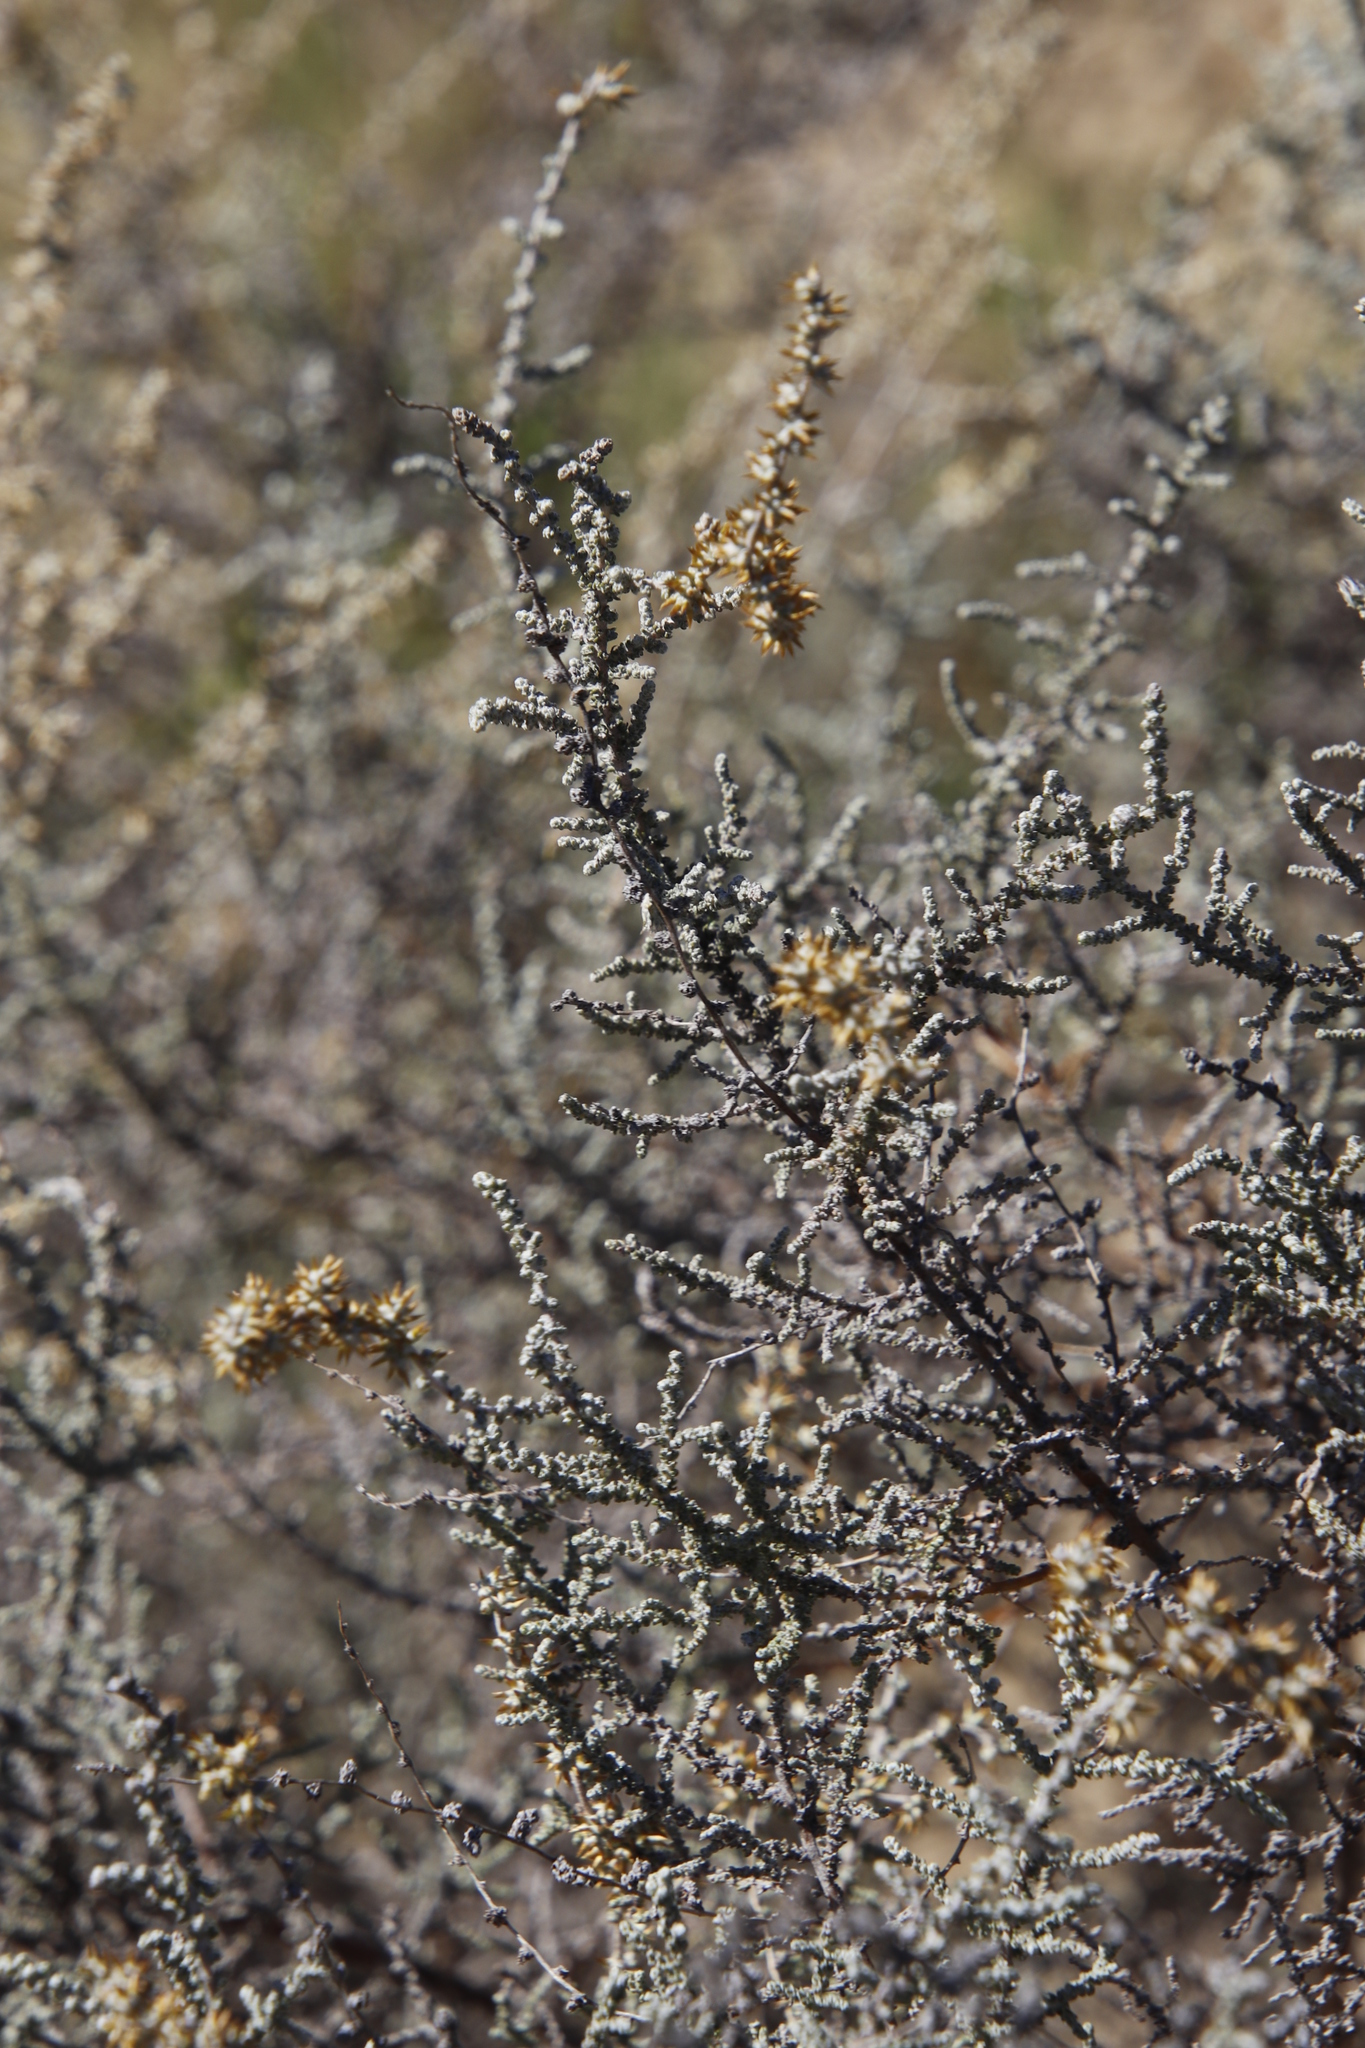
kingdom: Plantae
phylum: Tracheophyta
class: Magnoliopsida
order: Asterales
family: Asteraceae
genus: Seriphium
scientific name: Seriphium plumosum
